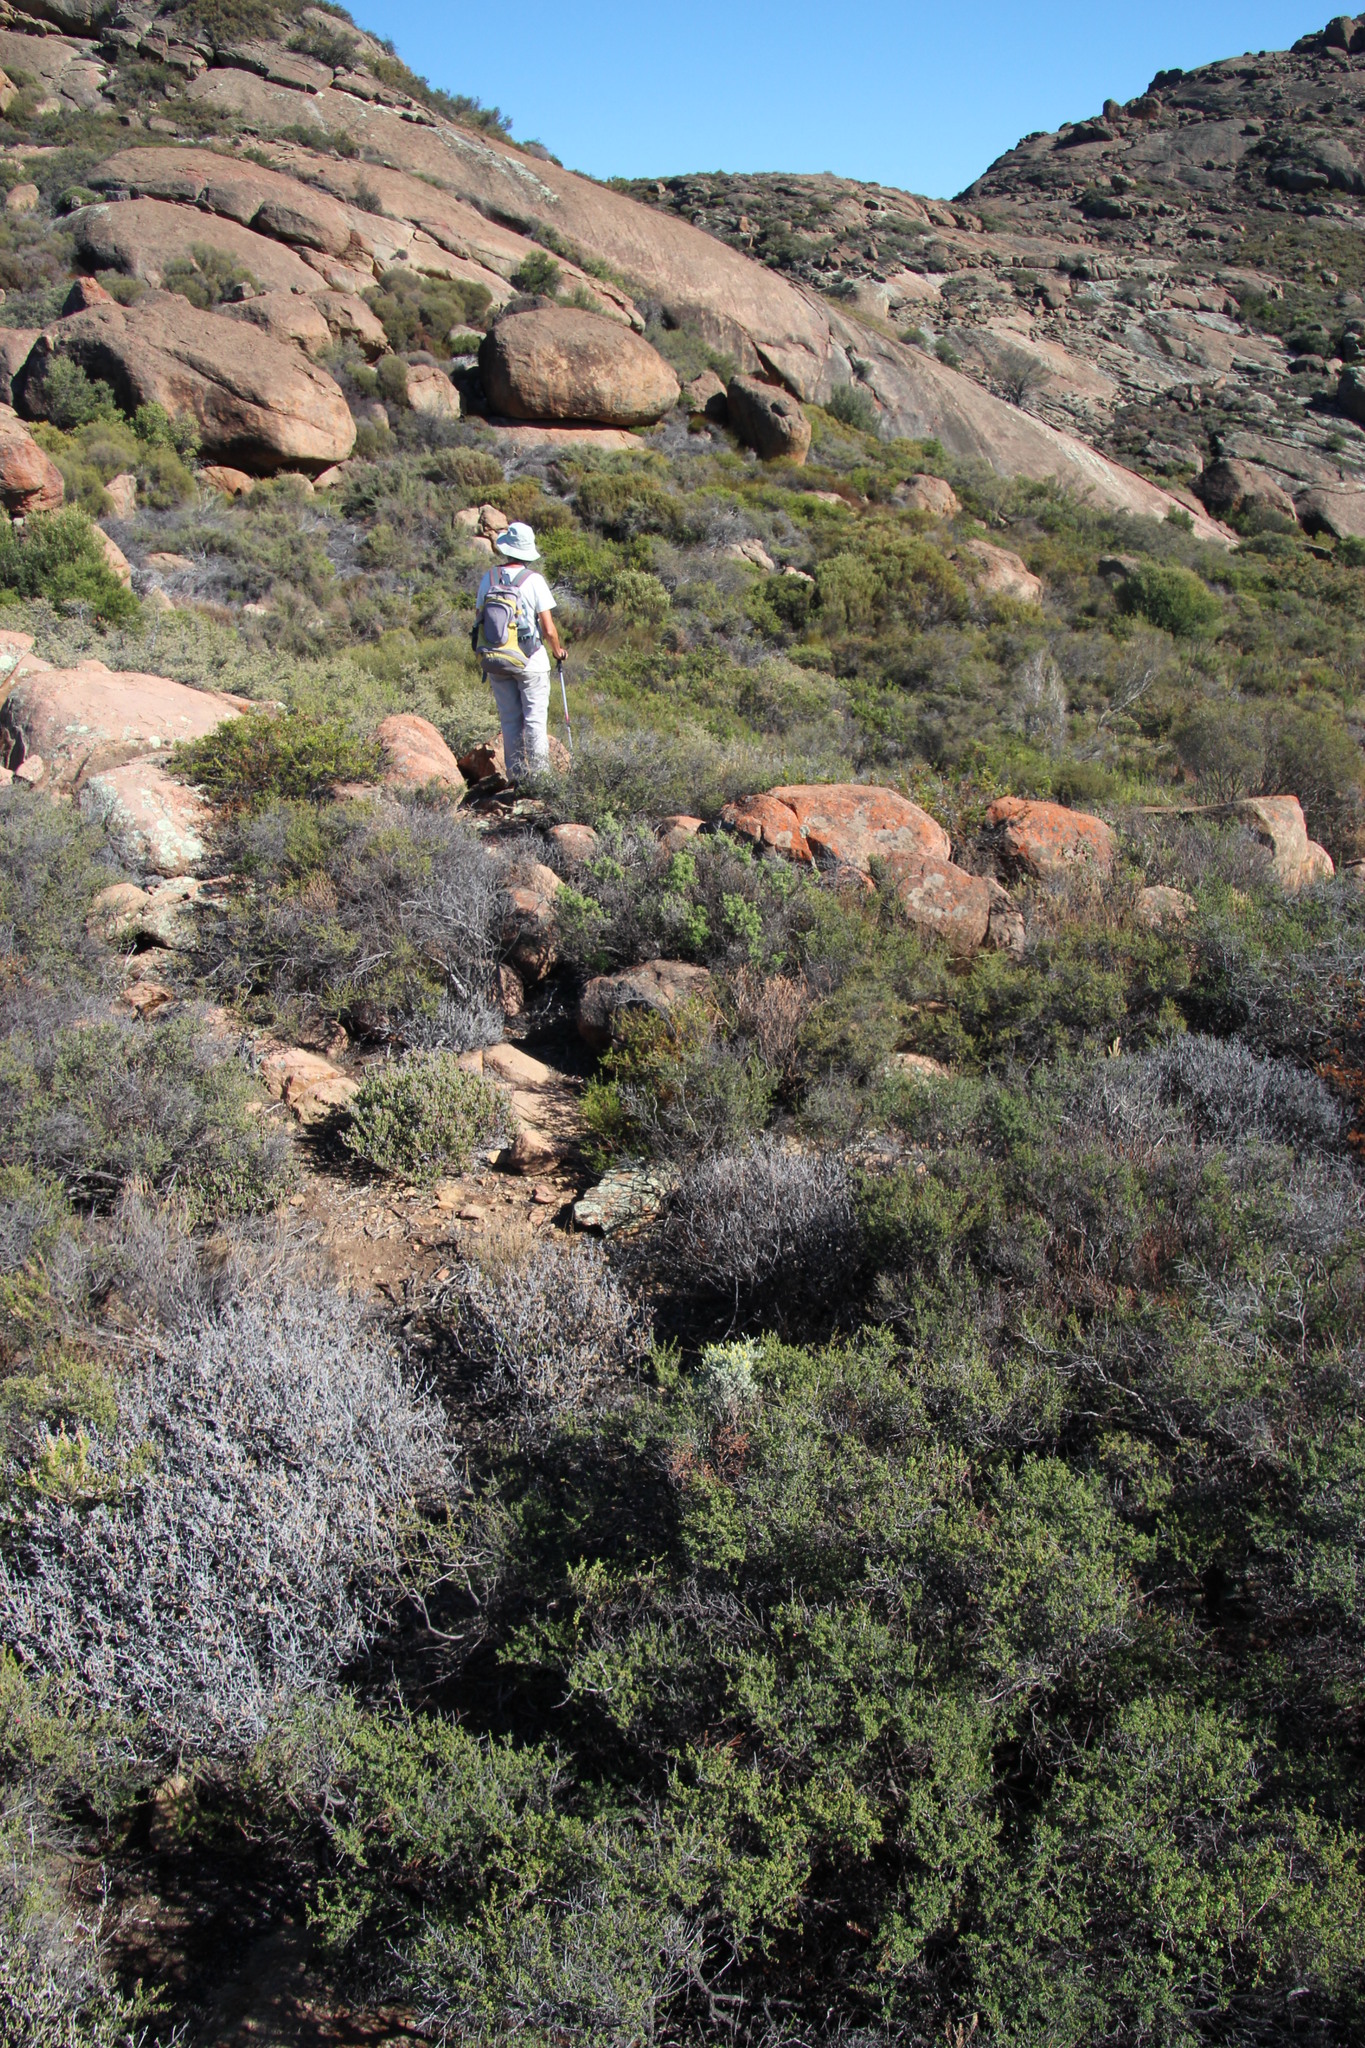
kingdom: Plantae
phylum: Tracheophyta
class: Magnoliopsida
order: Fabales
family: Fabaceae
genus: Indigofera
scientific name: Indigofera spinescens
